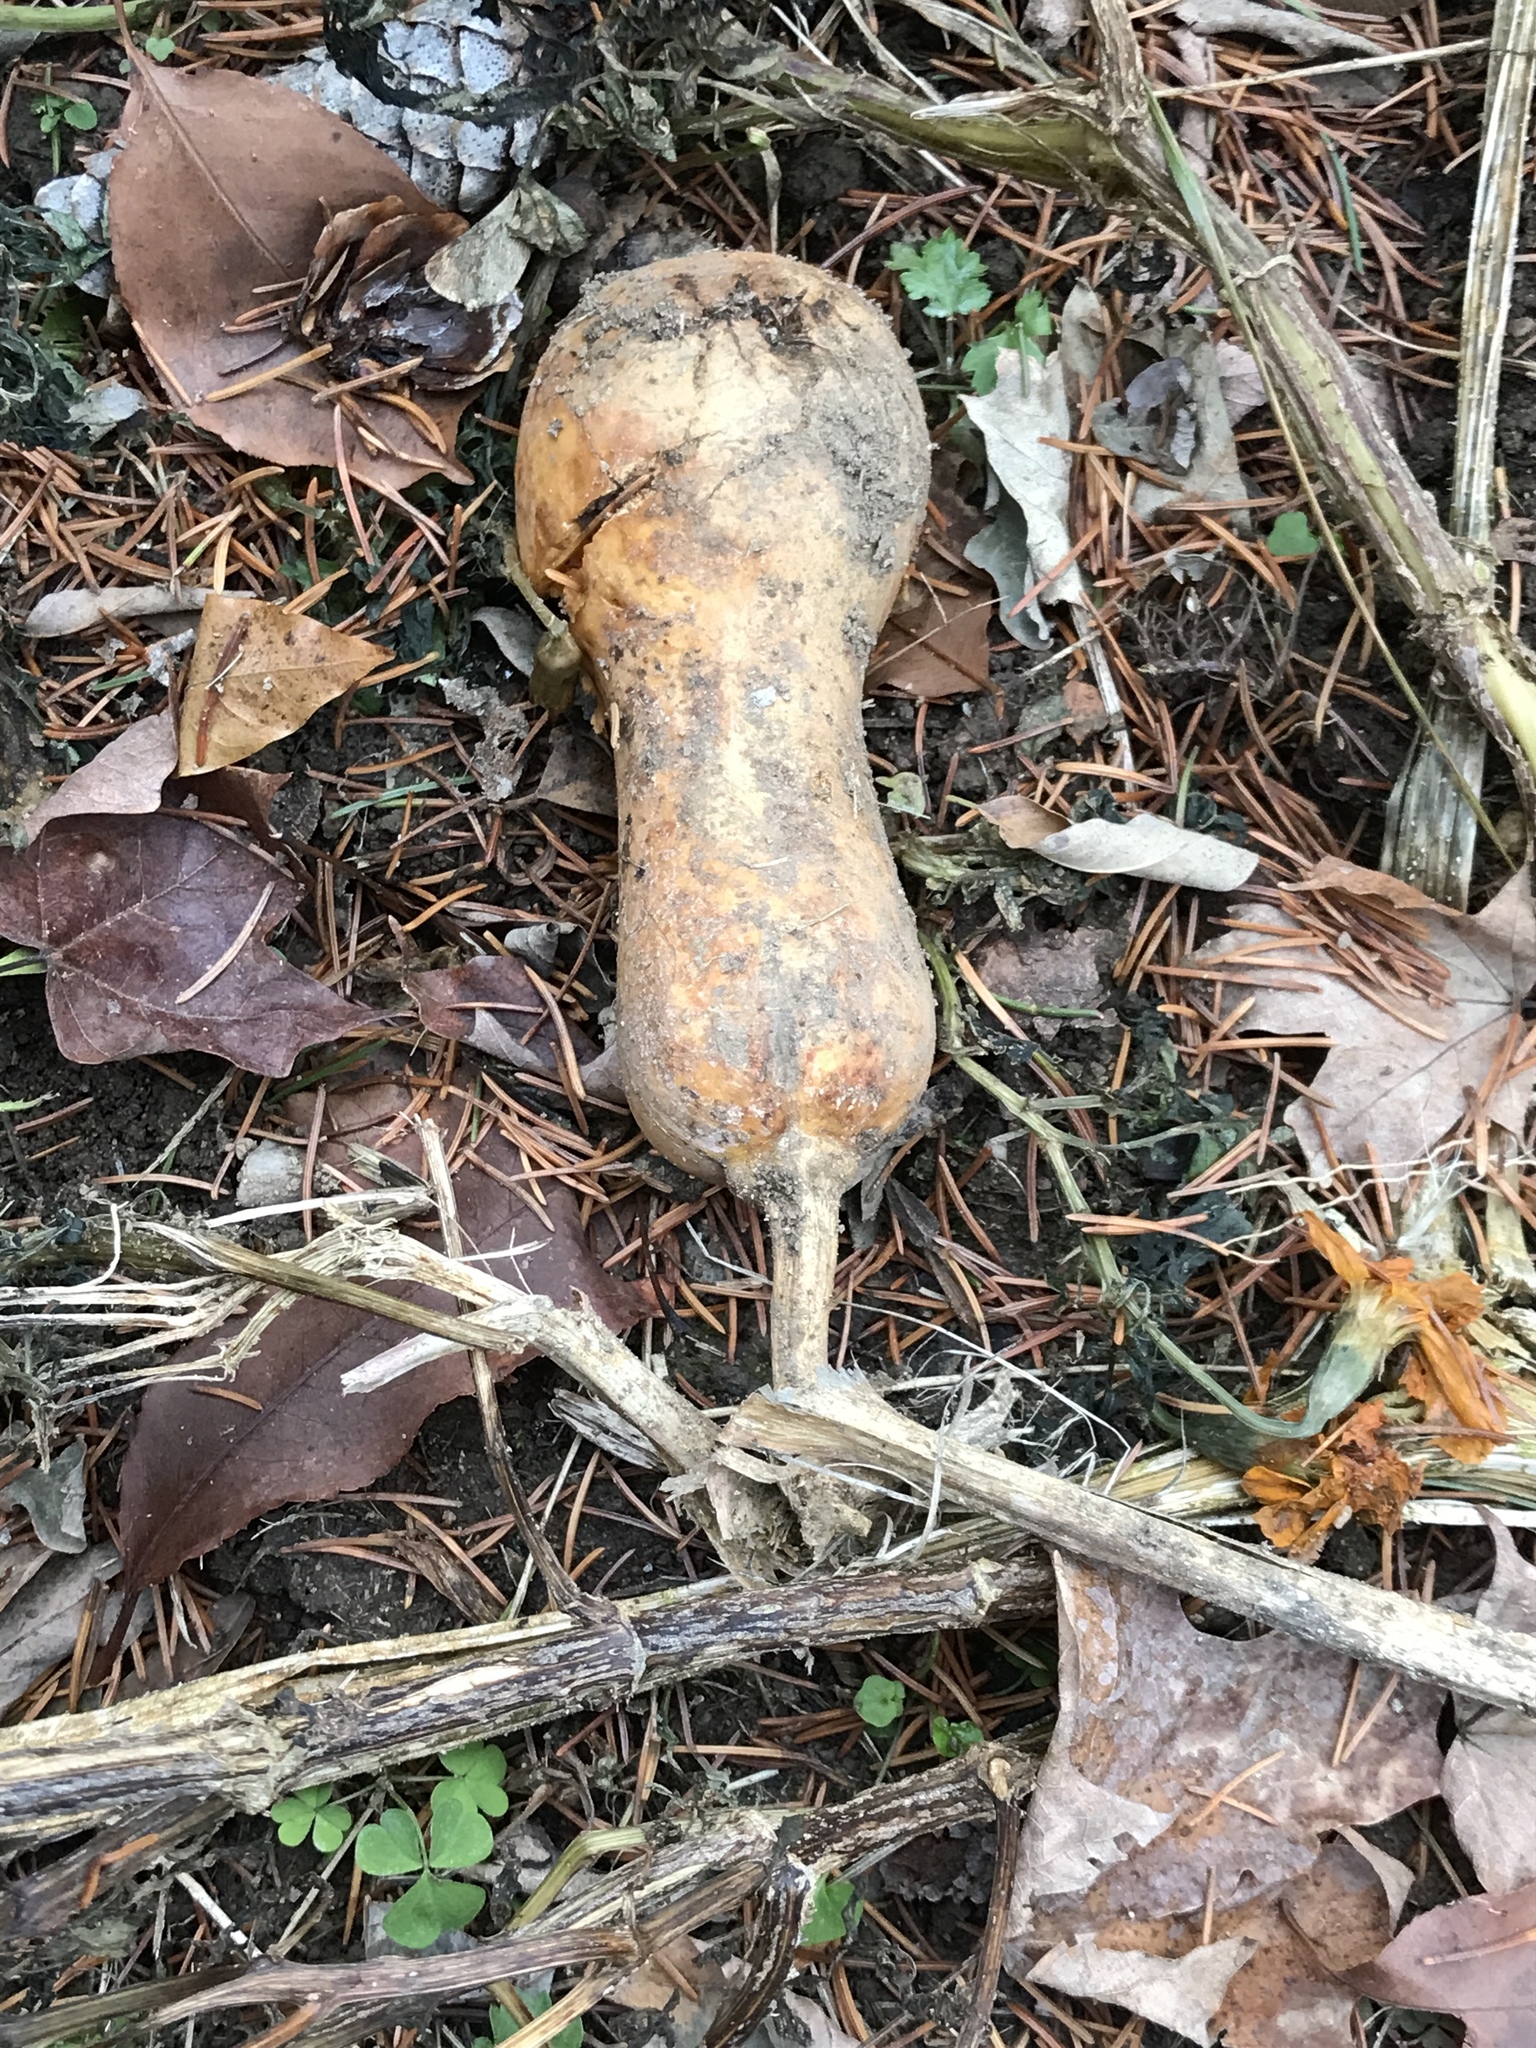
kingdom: Plantae
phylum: Tracheophyta
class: Magnoliopsida
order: Cucurbitales
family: Cucurbitaceae
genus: Cucurbita
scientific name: Cucurbita moschata
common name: Squash / pumpkin
